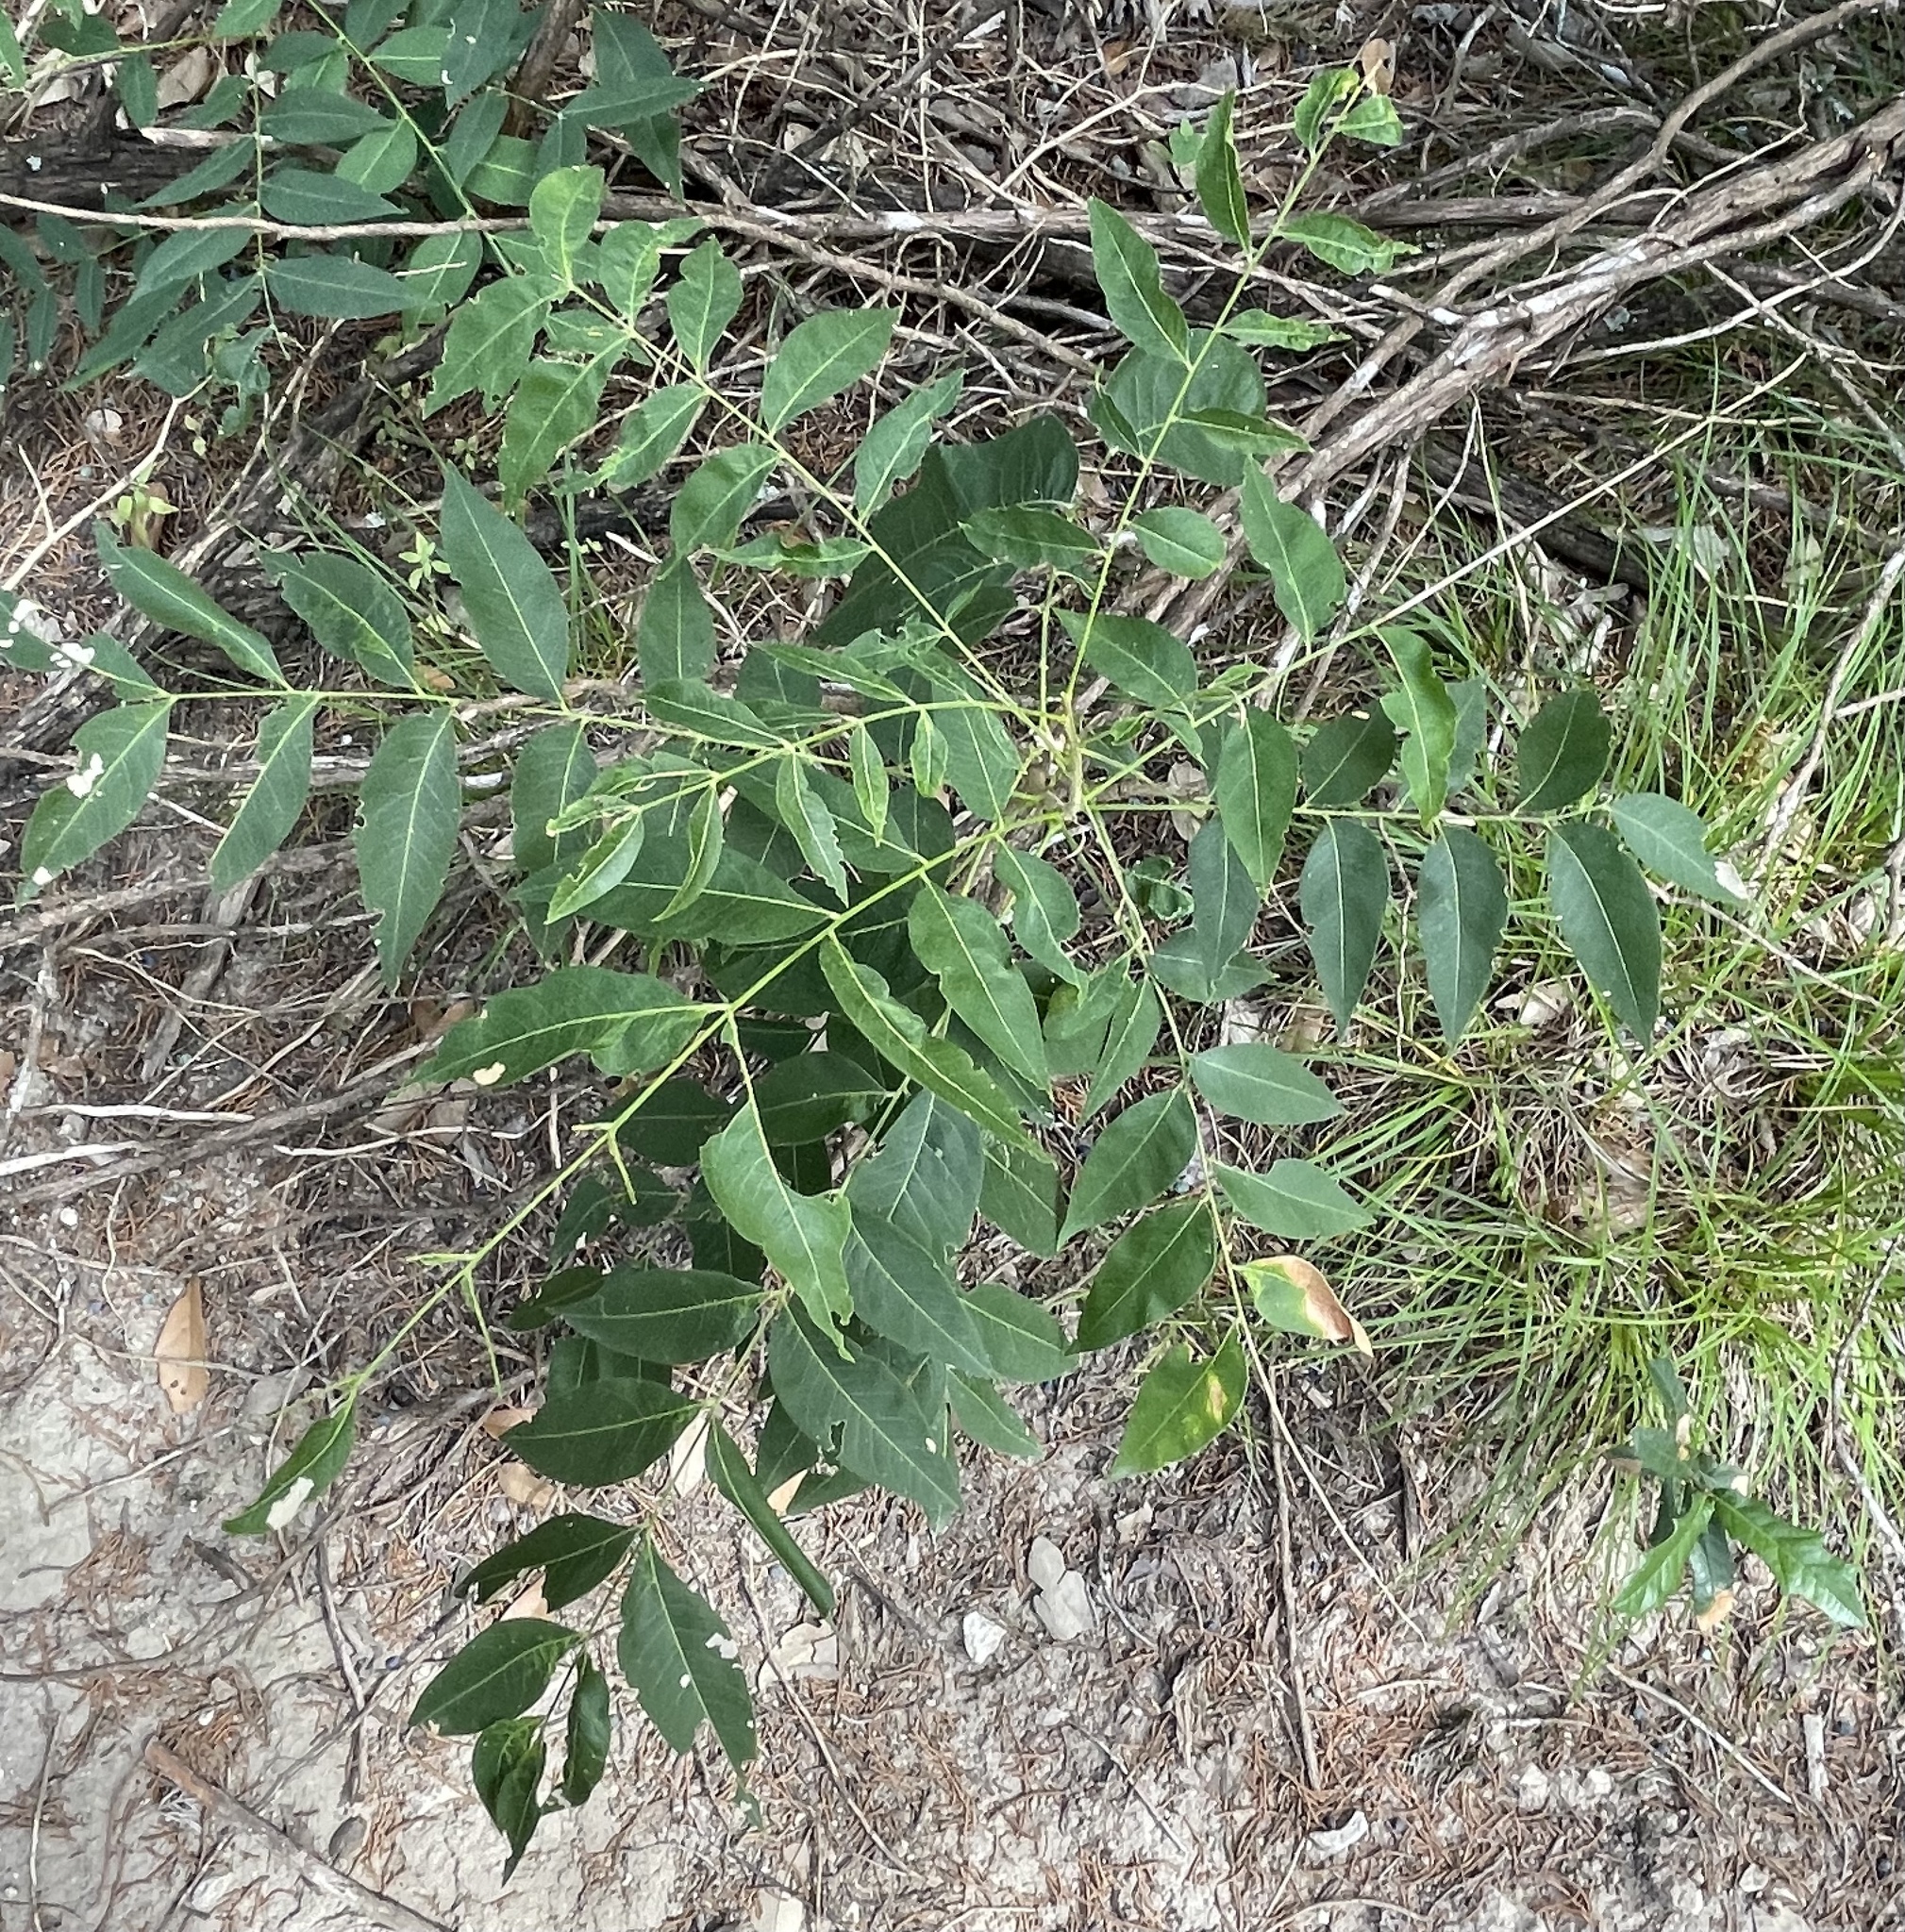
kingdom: Plantae
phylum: Tracheophyta
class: Magnoliopsida
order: Sapindales
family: Sapindaceae
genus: Sapindus
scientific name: Sapindus drummondii
